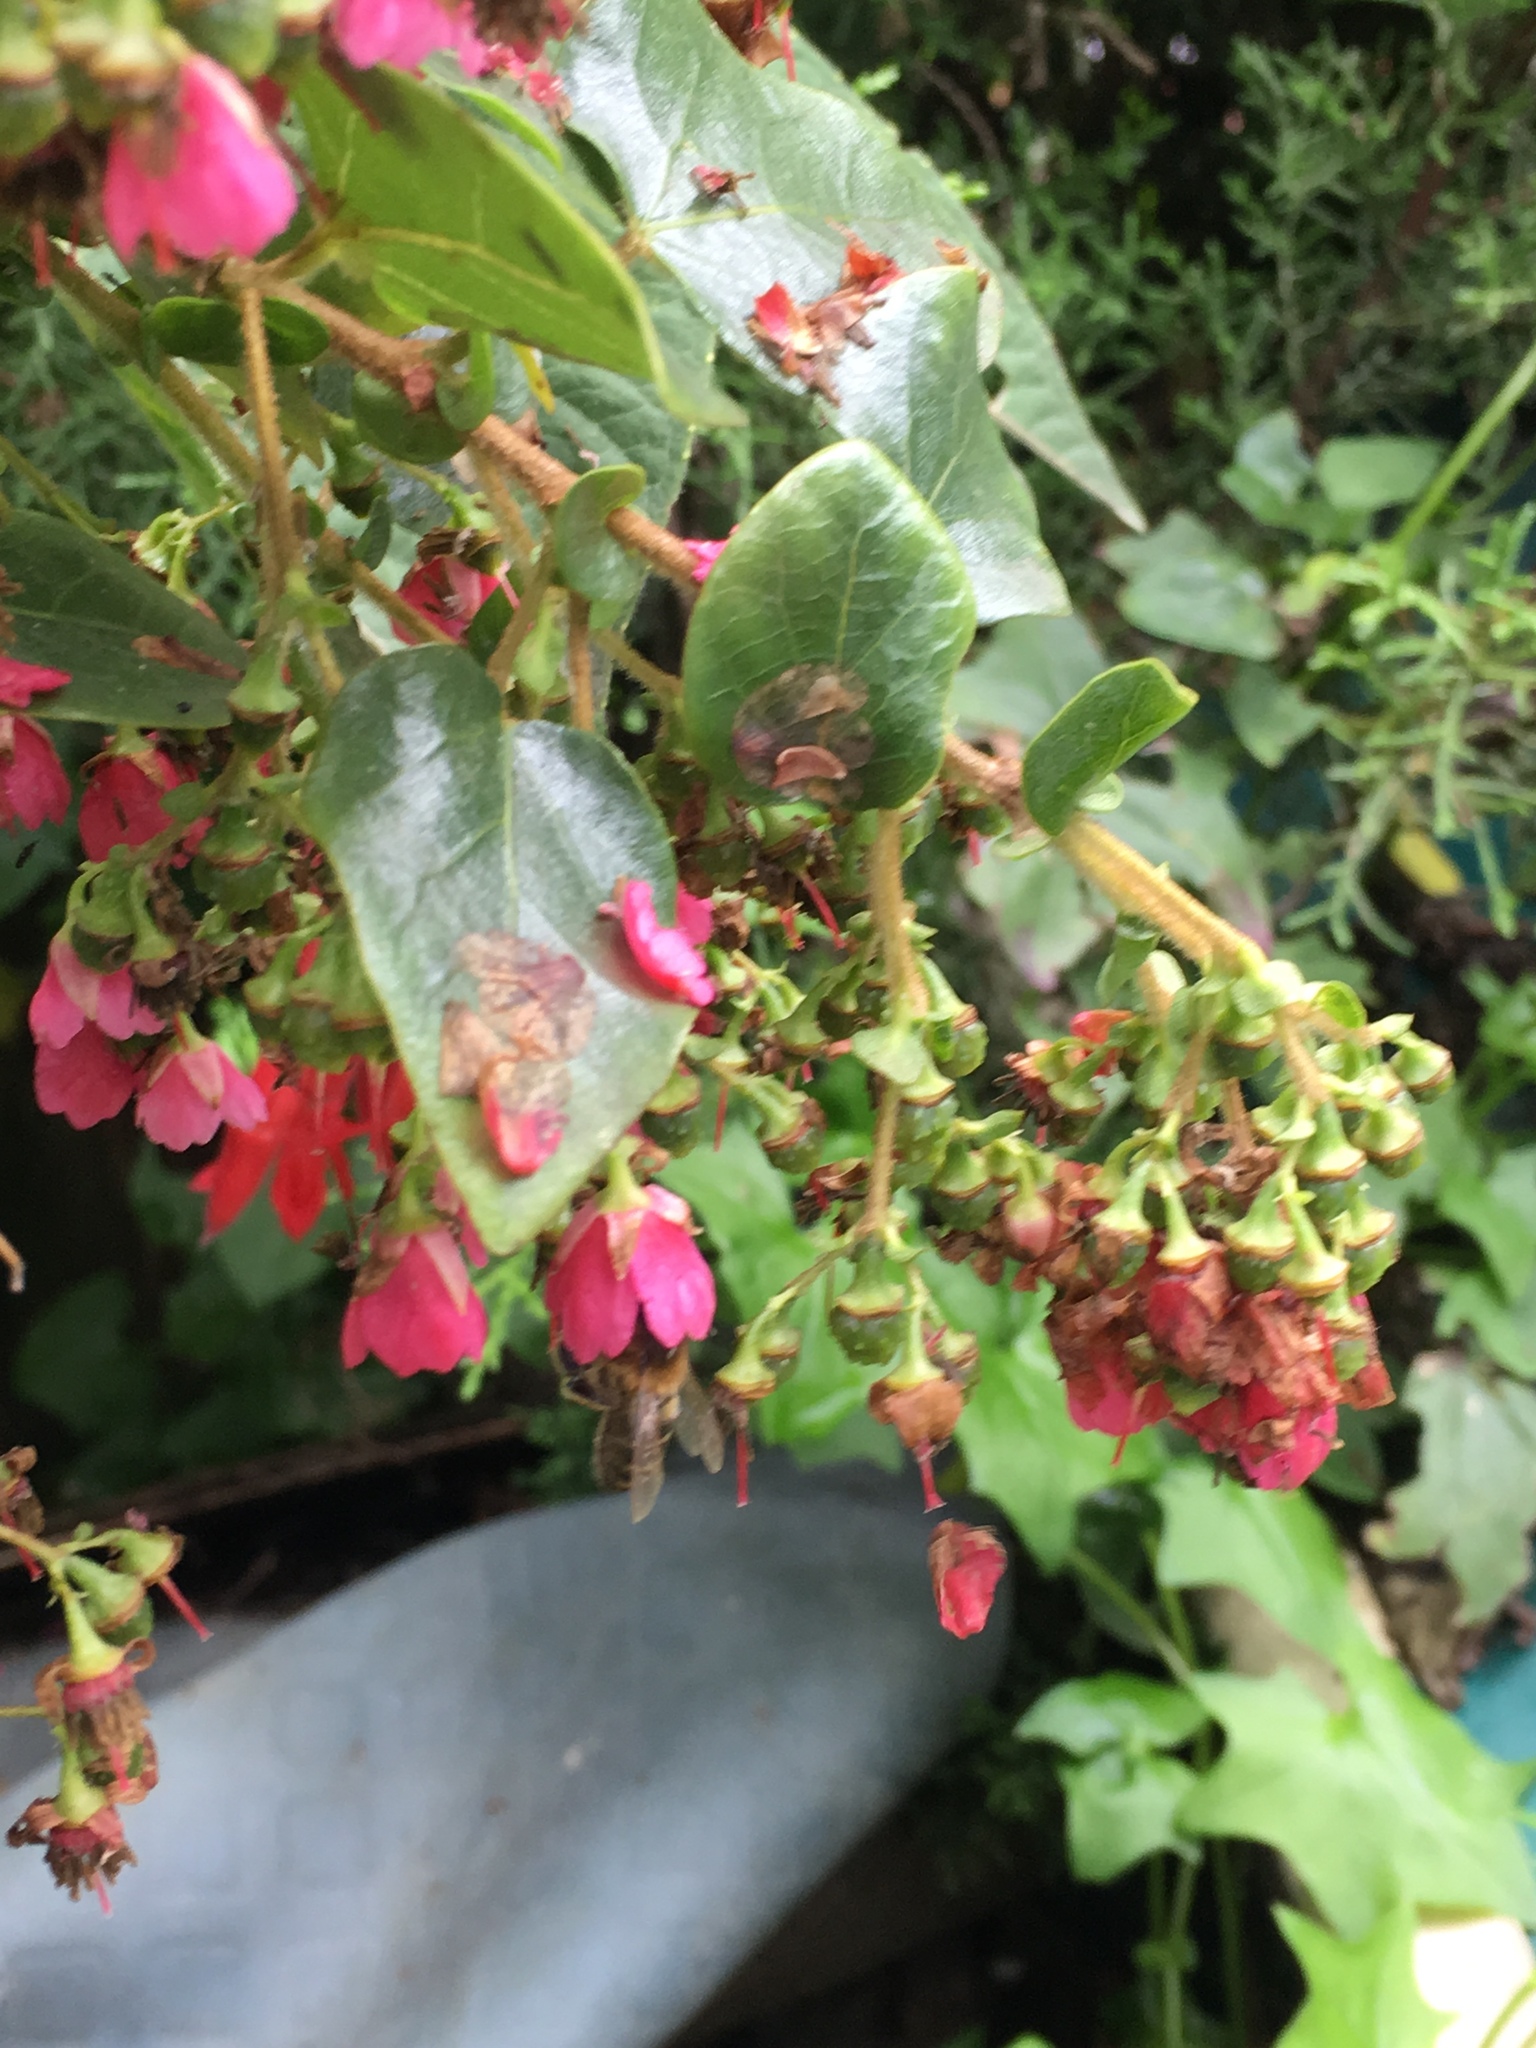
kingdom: Plantae
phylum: Tracheophyta
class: Magnoliopsida
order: Oxalidales
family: Elaeocarpaceae
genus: Vallea
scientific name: Vallea stipularis
